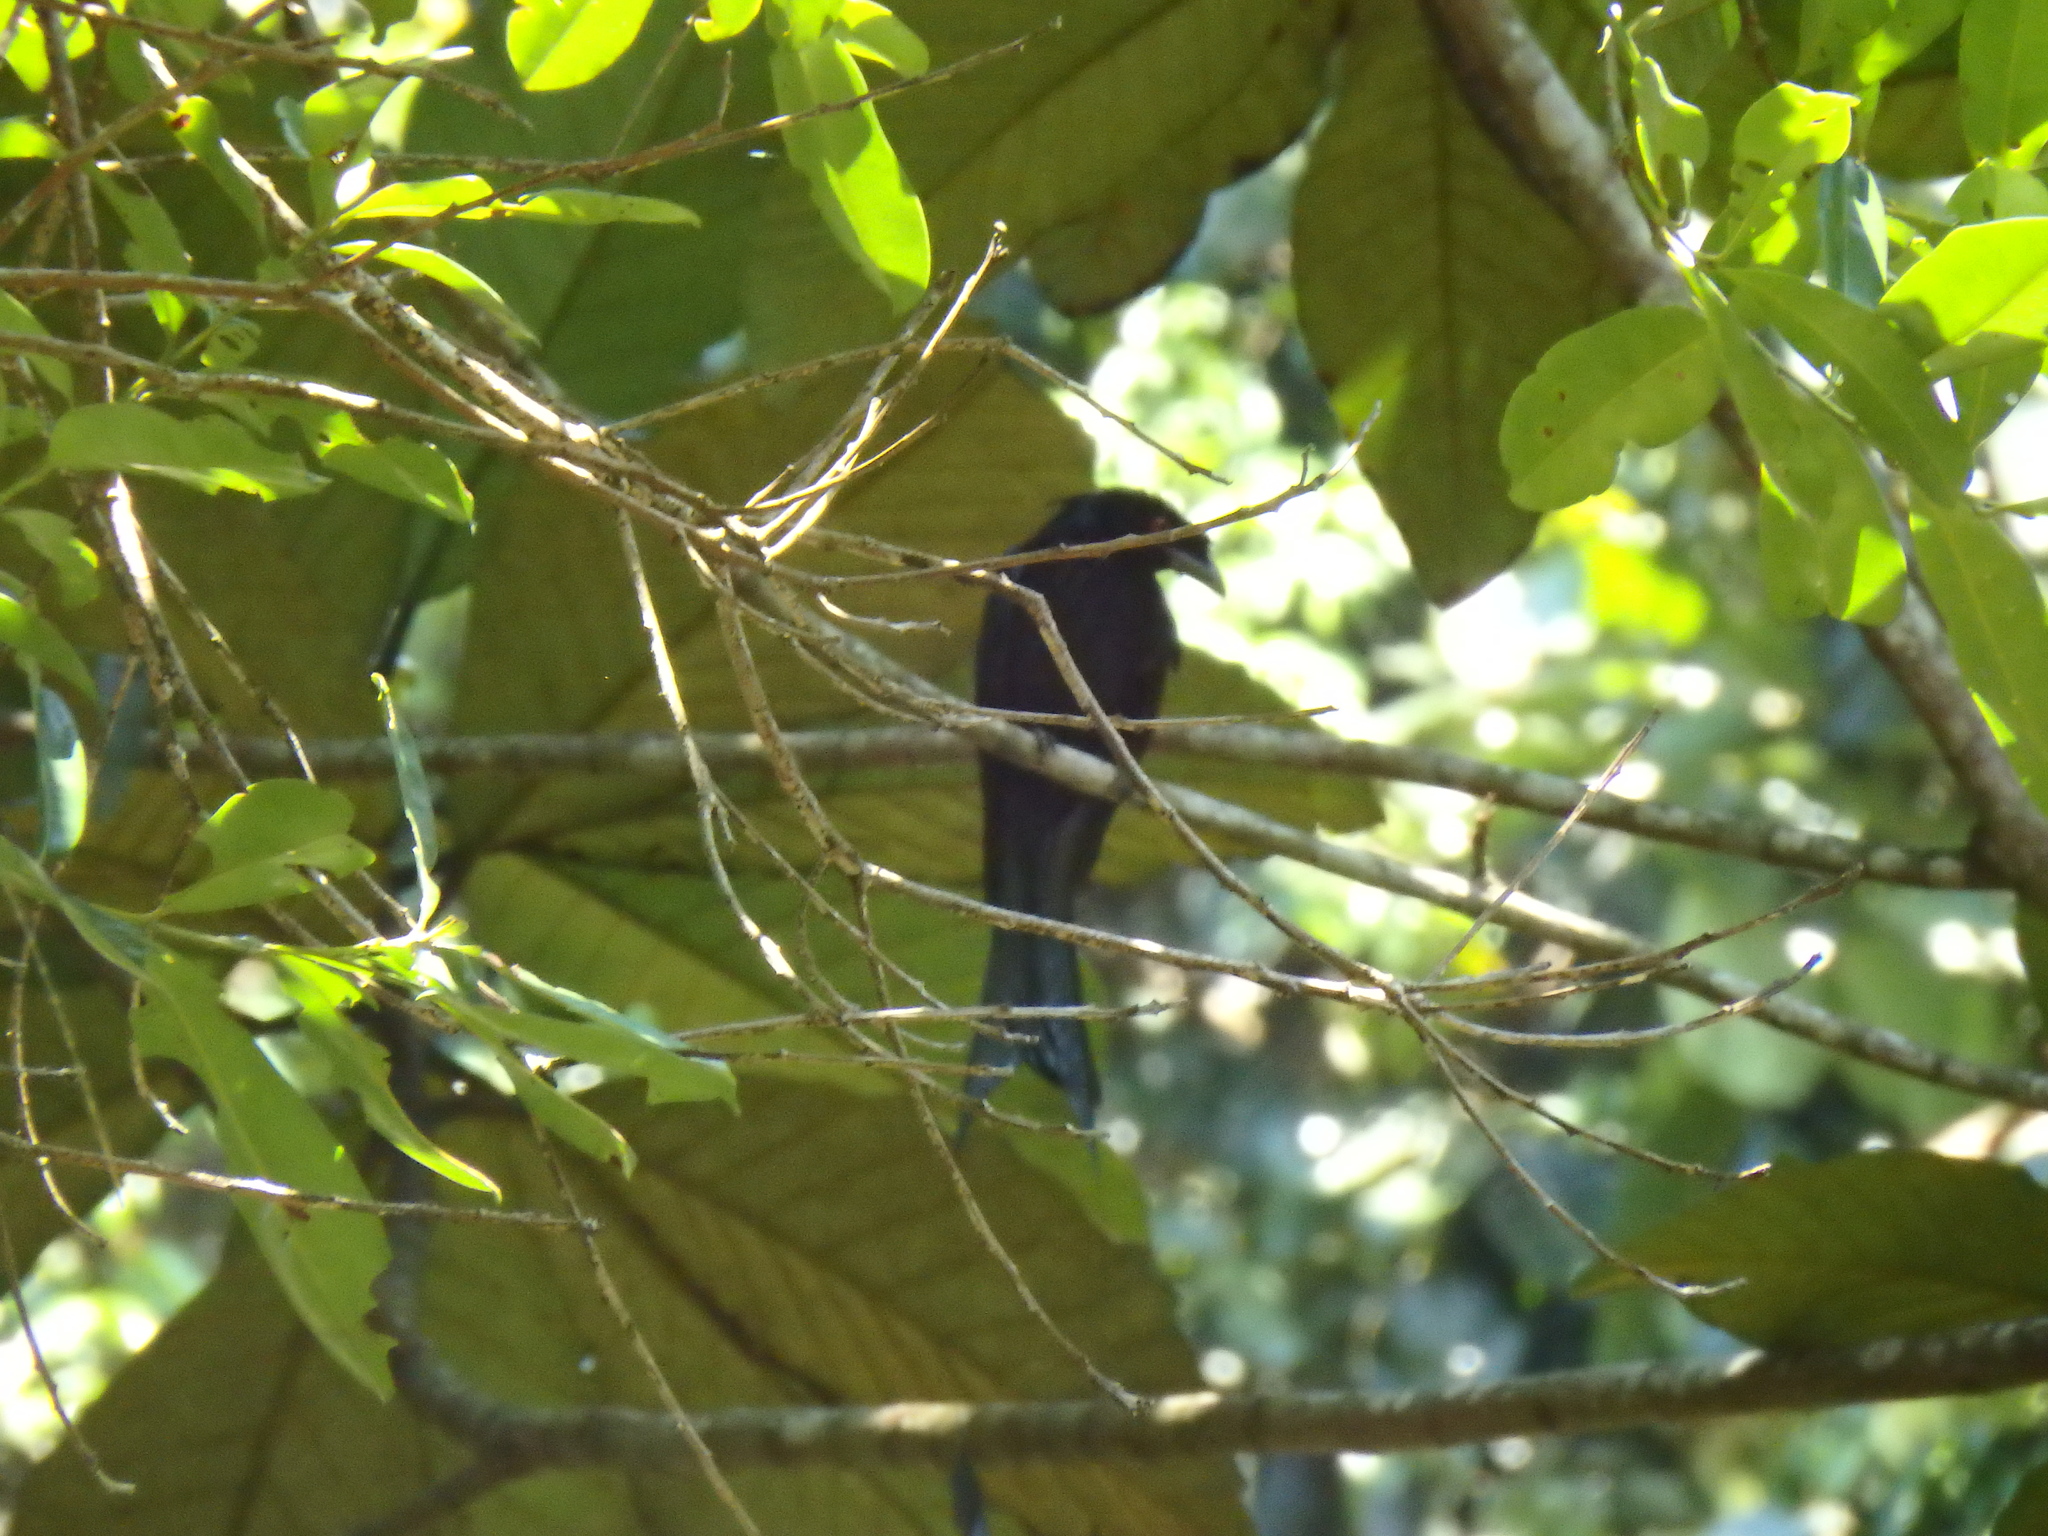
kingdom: Animalia
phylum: Chordata
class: Aves
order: Passeriformes
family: Dicruridae
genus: Dicrurus
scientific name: Dicrurus paradiseus
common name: Greater racket-tailed drongo
